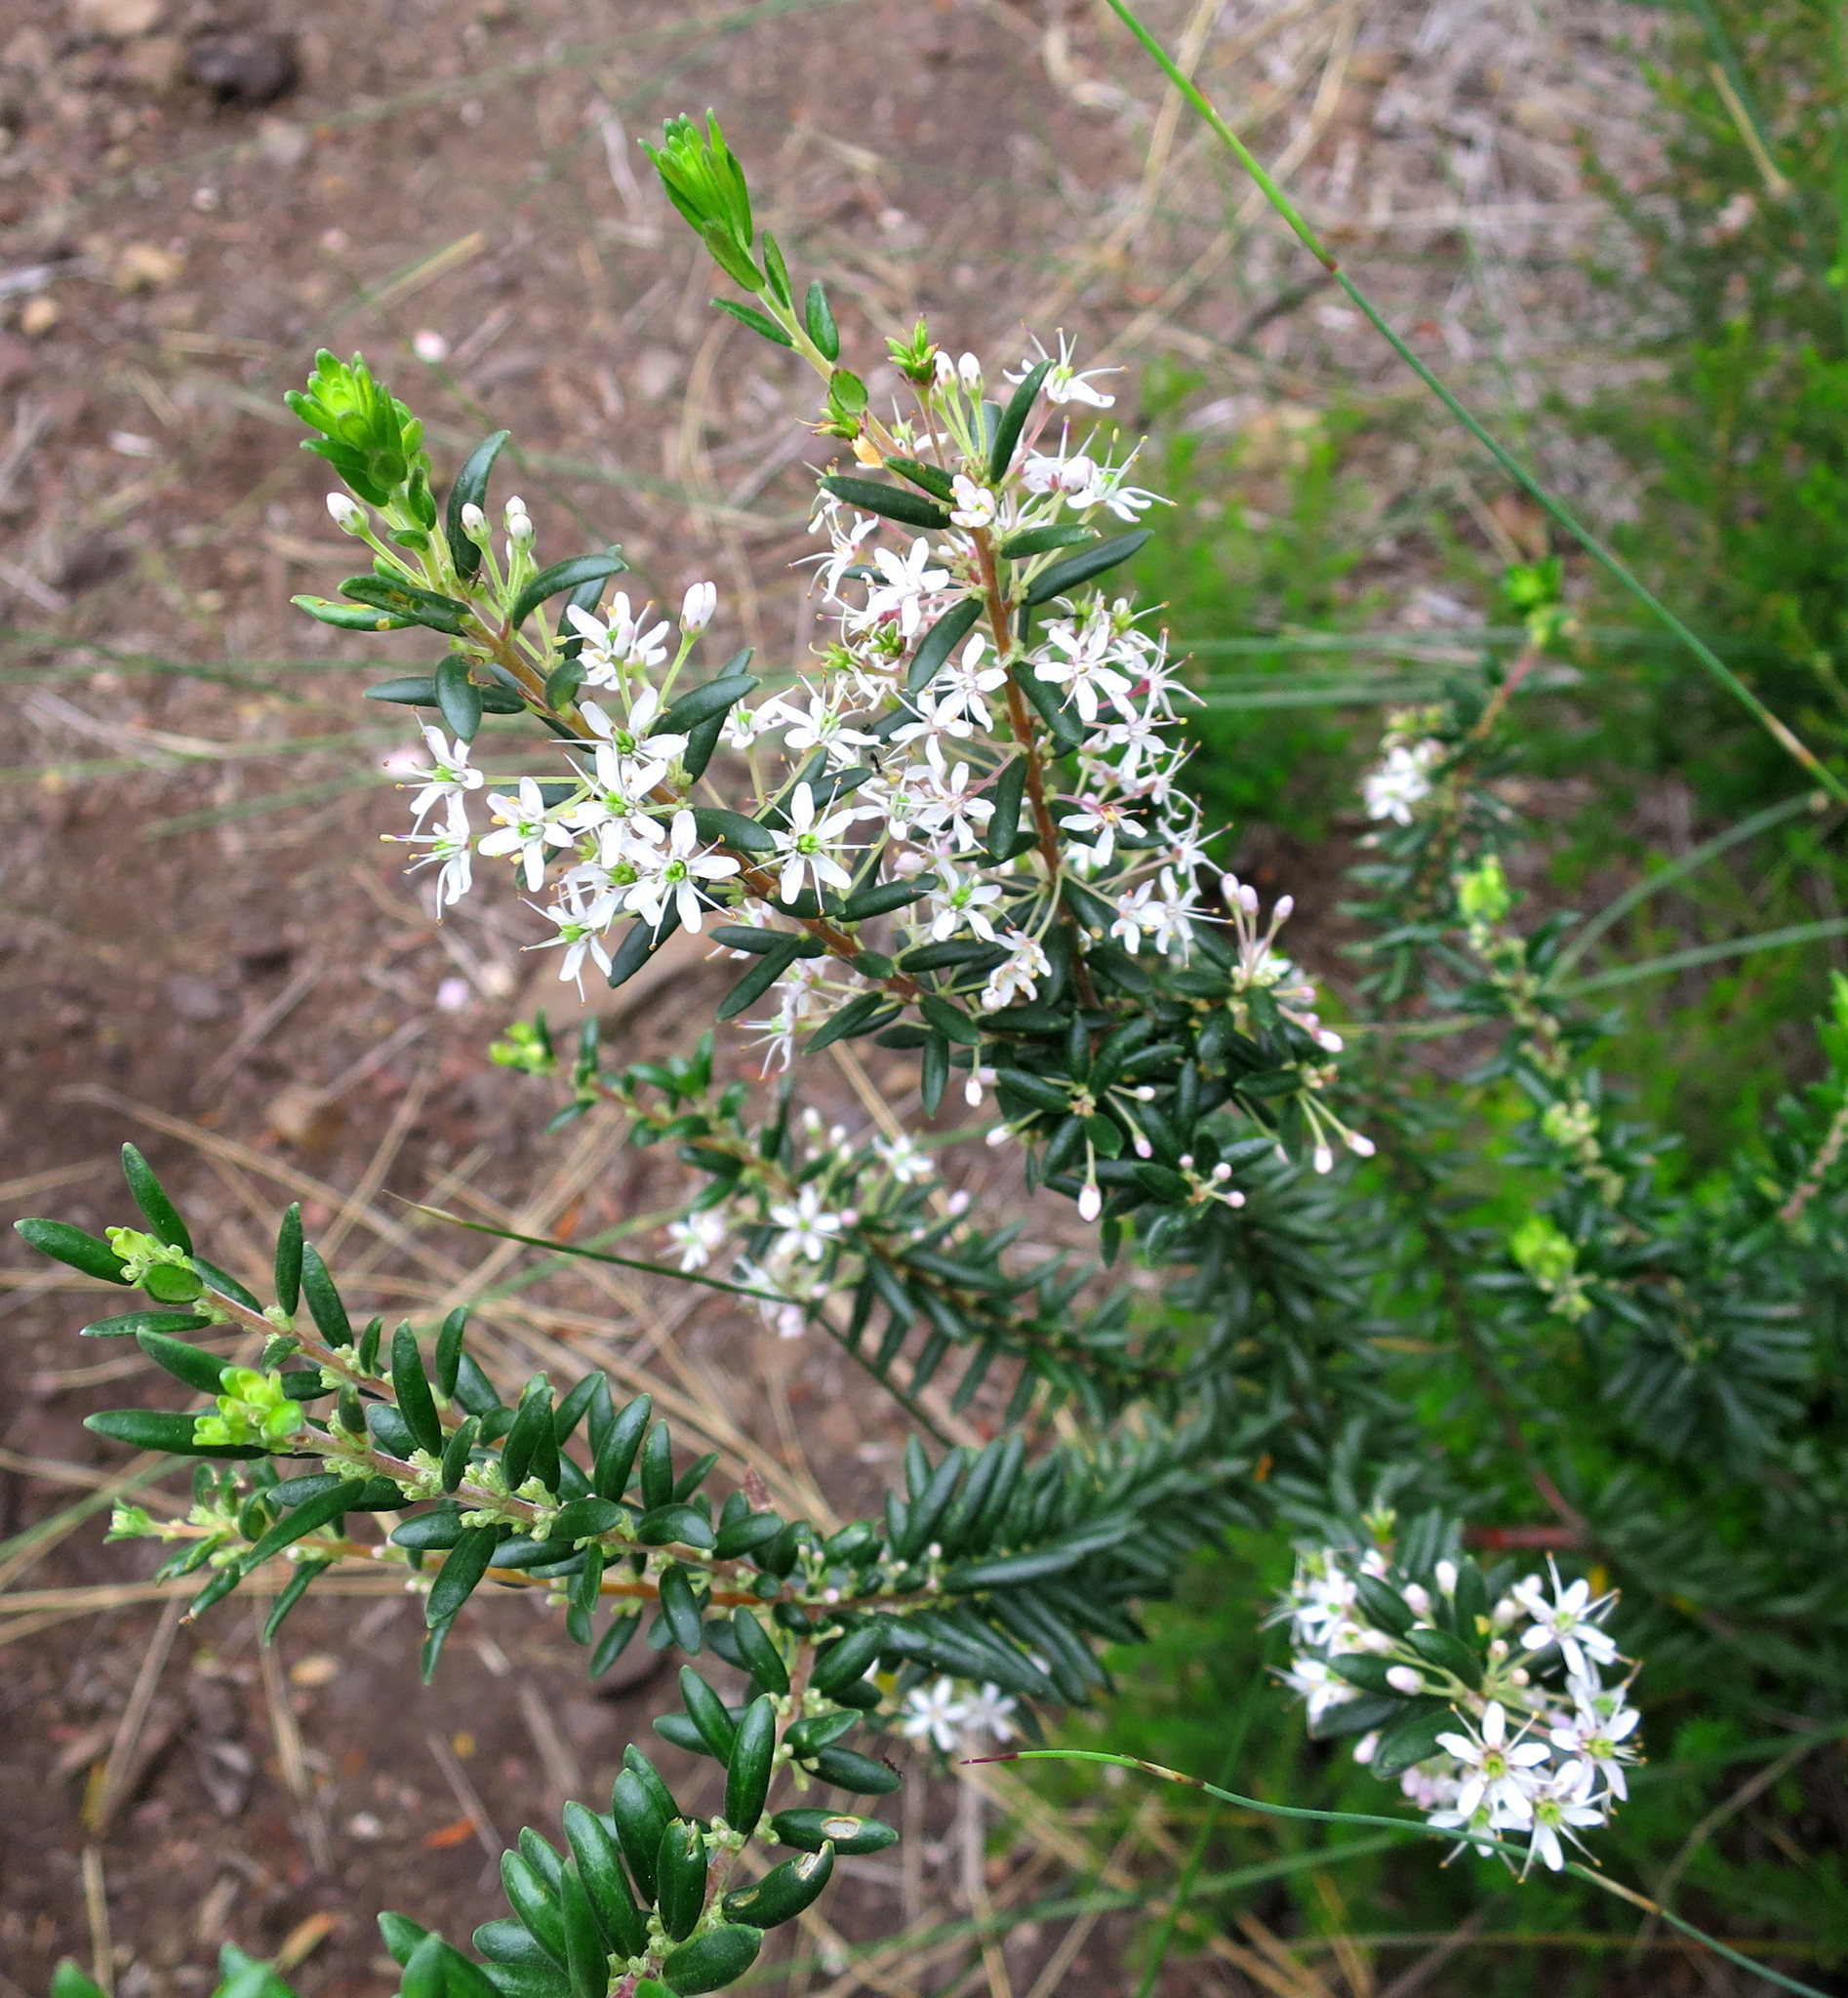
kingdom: Plantae
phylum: Tracheophyta
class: Magnoliopsida
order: Sapindales
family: Rutaceae
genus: Agathosma
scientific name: Agathosma ovata
